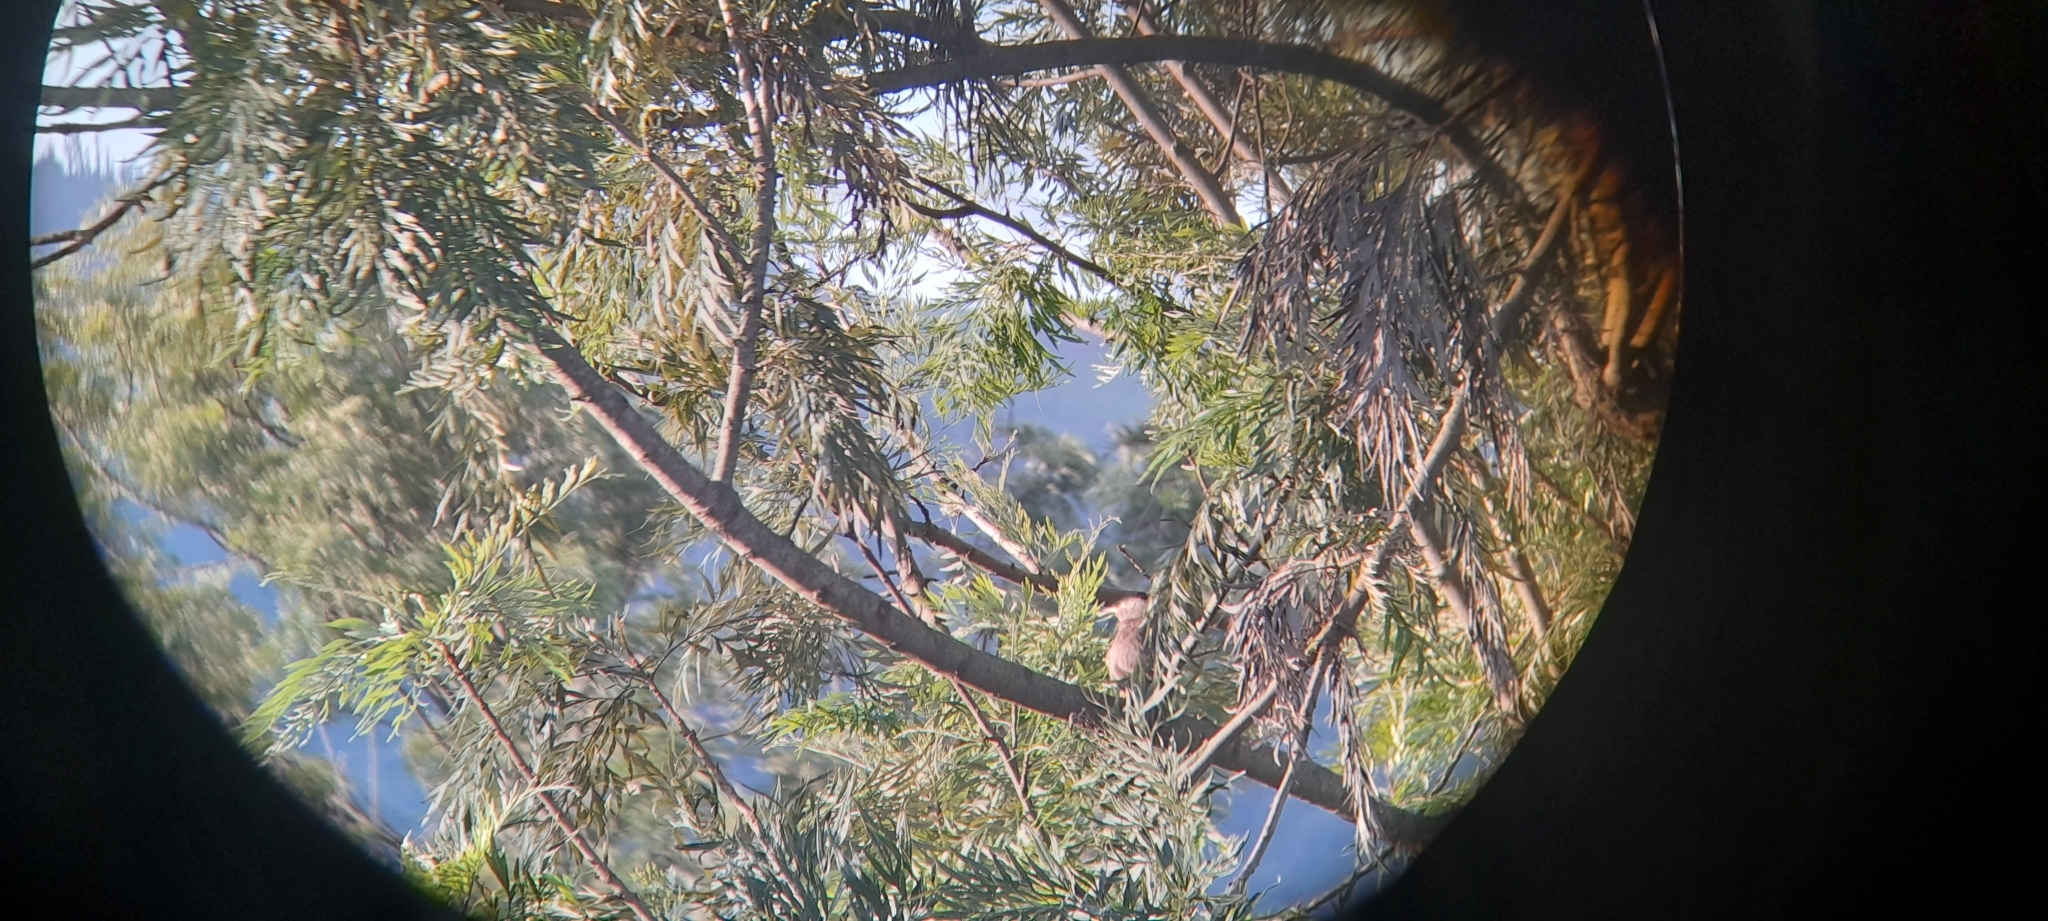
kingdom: Animalia
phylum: Chordata
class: Aves
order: Passeriformes
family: Leiothrichidae
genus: Turdoides
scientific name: Turdoides striata
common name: Jungle babbler
